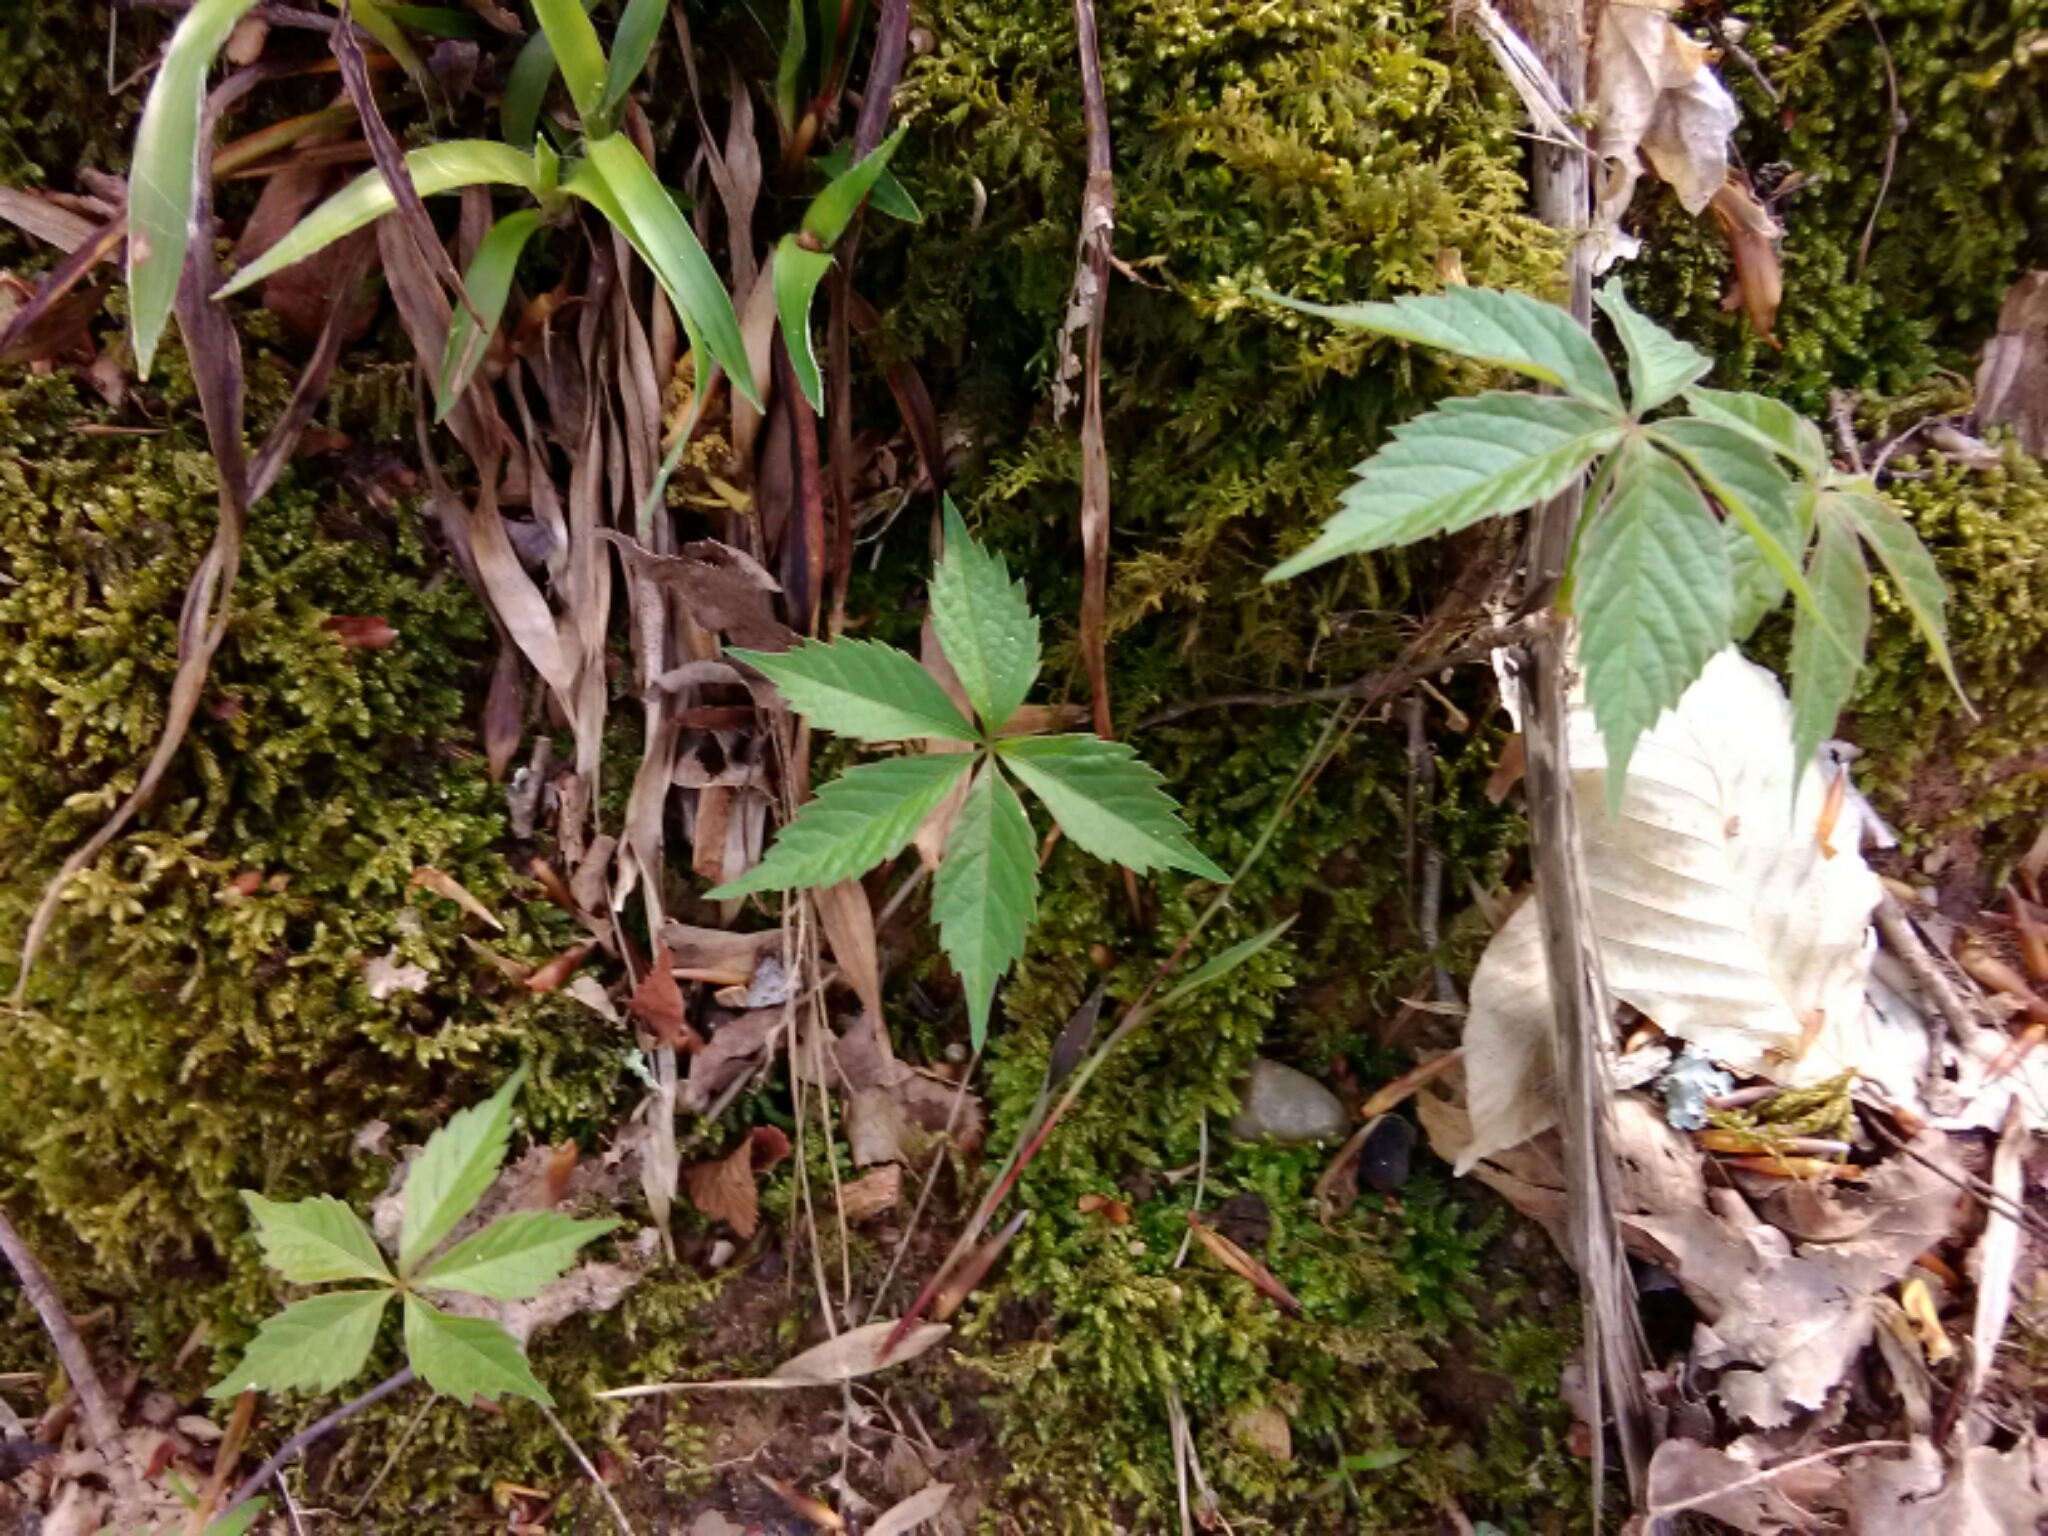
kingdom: Plantae
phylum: Tracheophyta
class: Magnoliopsida
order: Vitales
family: Vitaceae
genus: Parthenocissus
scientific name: Parthenocissus quinquefolia
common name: Virginia-creeper
